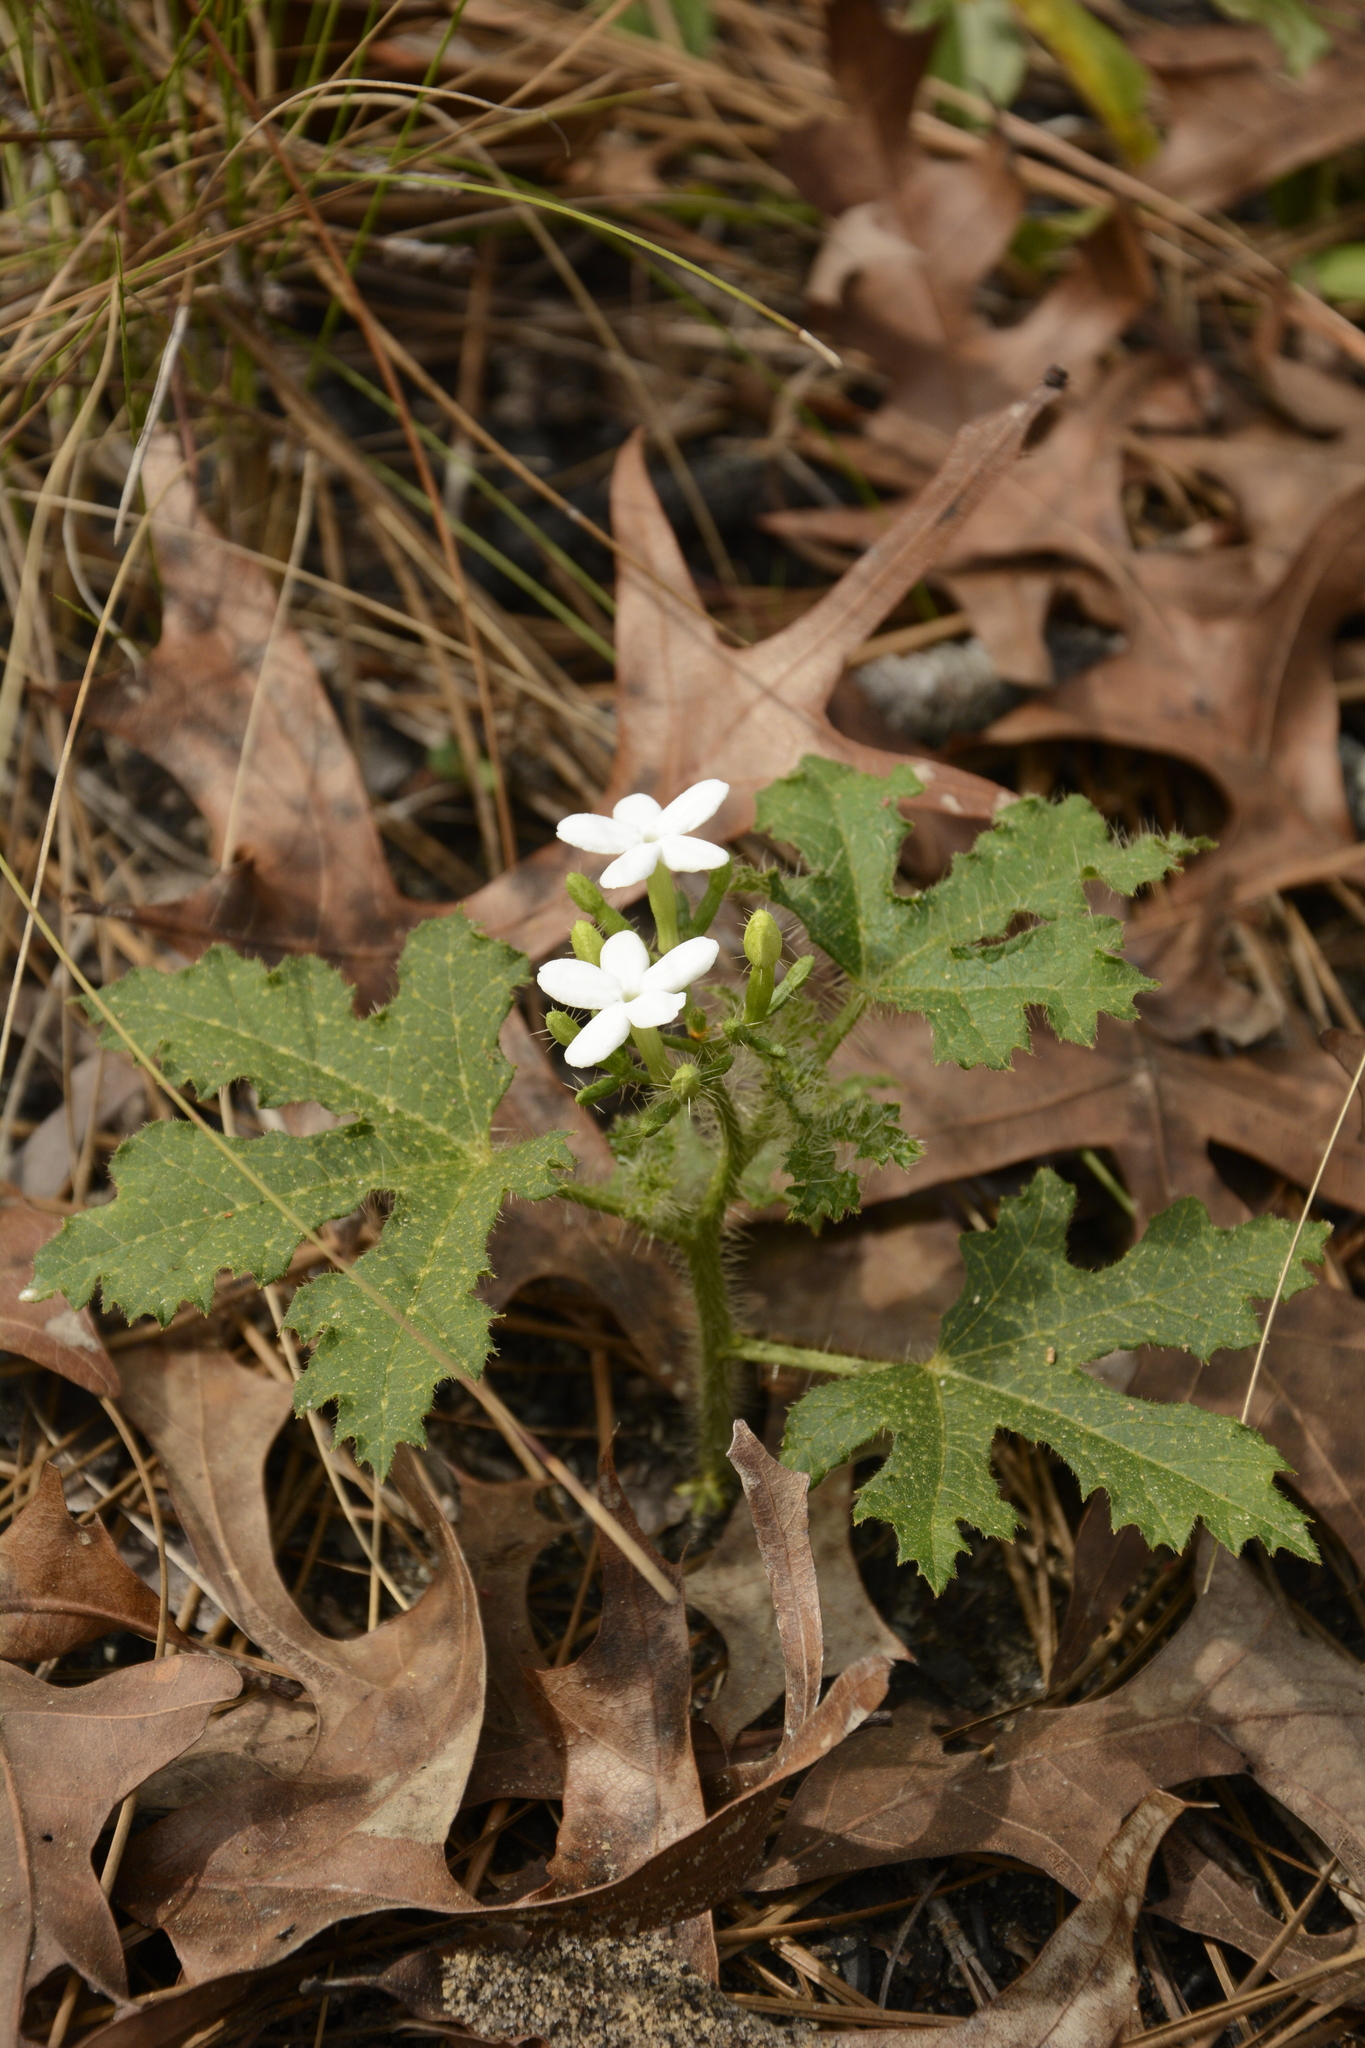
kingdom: Plantae
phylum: Tracheophyta
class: Magnoliopsida
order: Malpighiales
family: Euphorbiaceae
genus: Cnidoscolus
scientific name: Cnidoscolus stimulosus
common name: Bull-nettle
